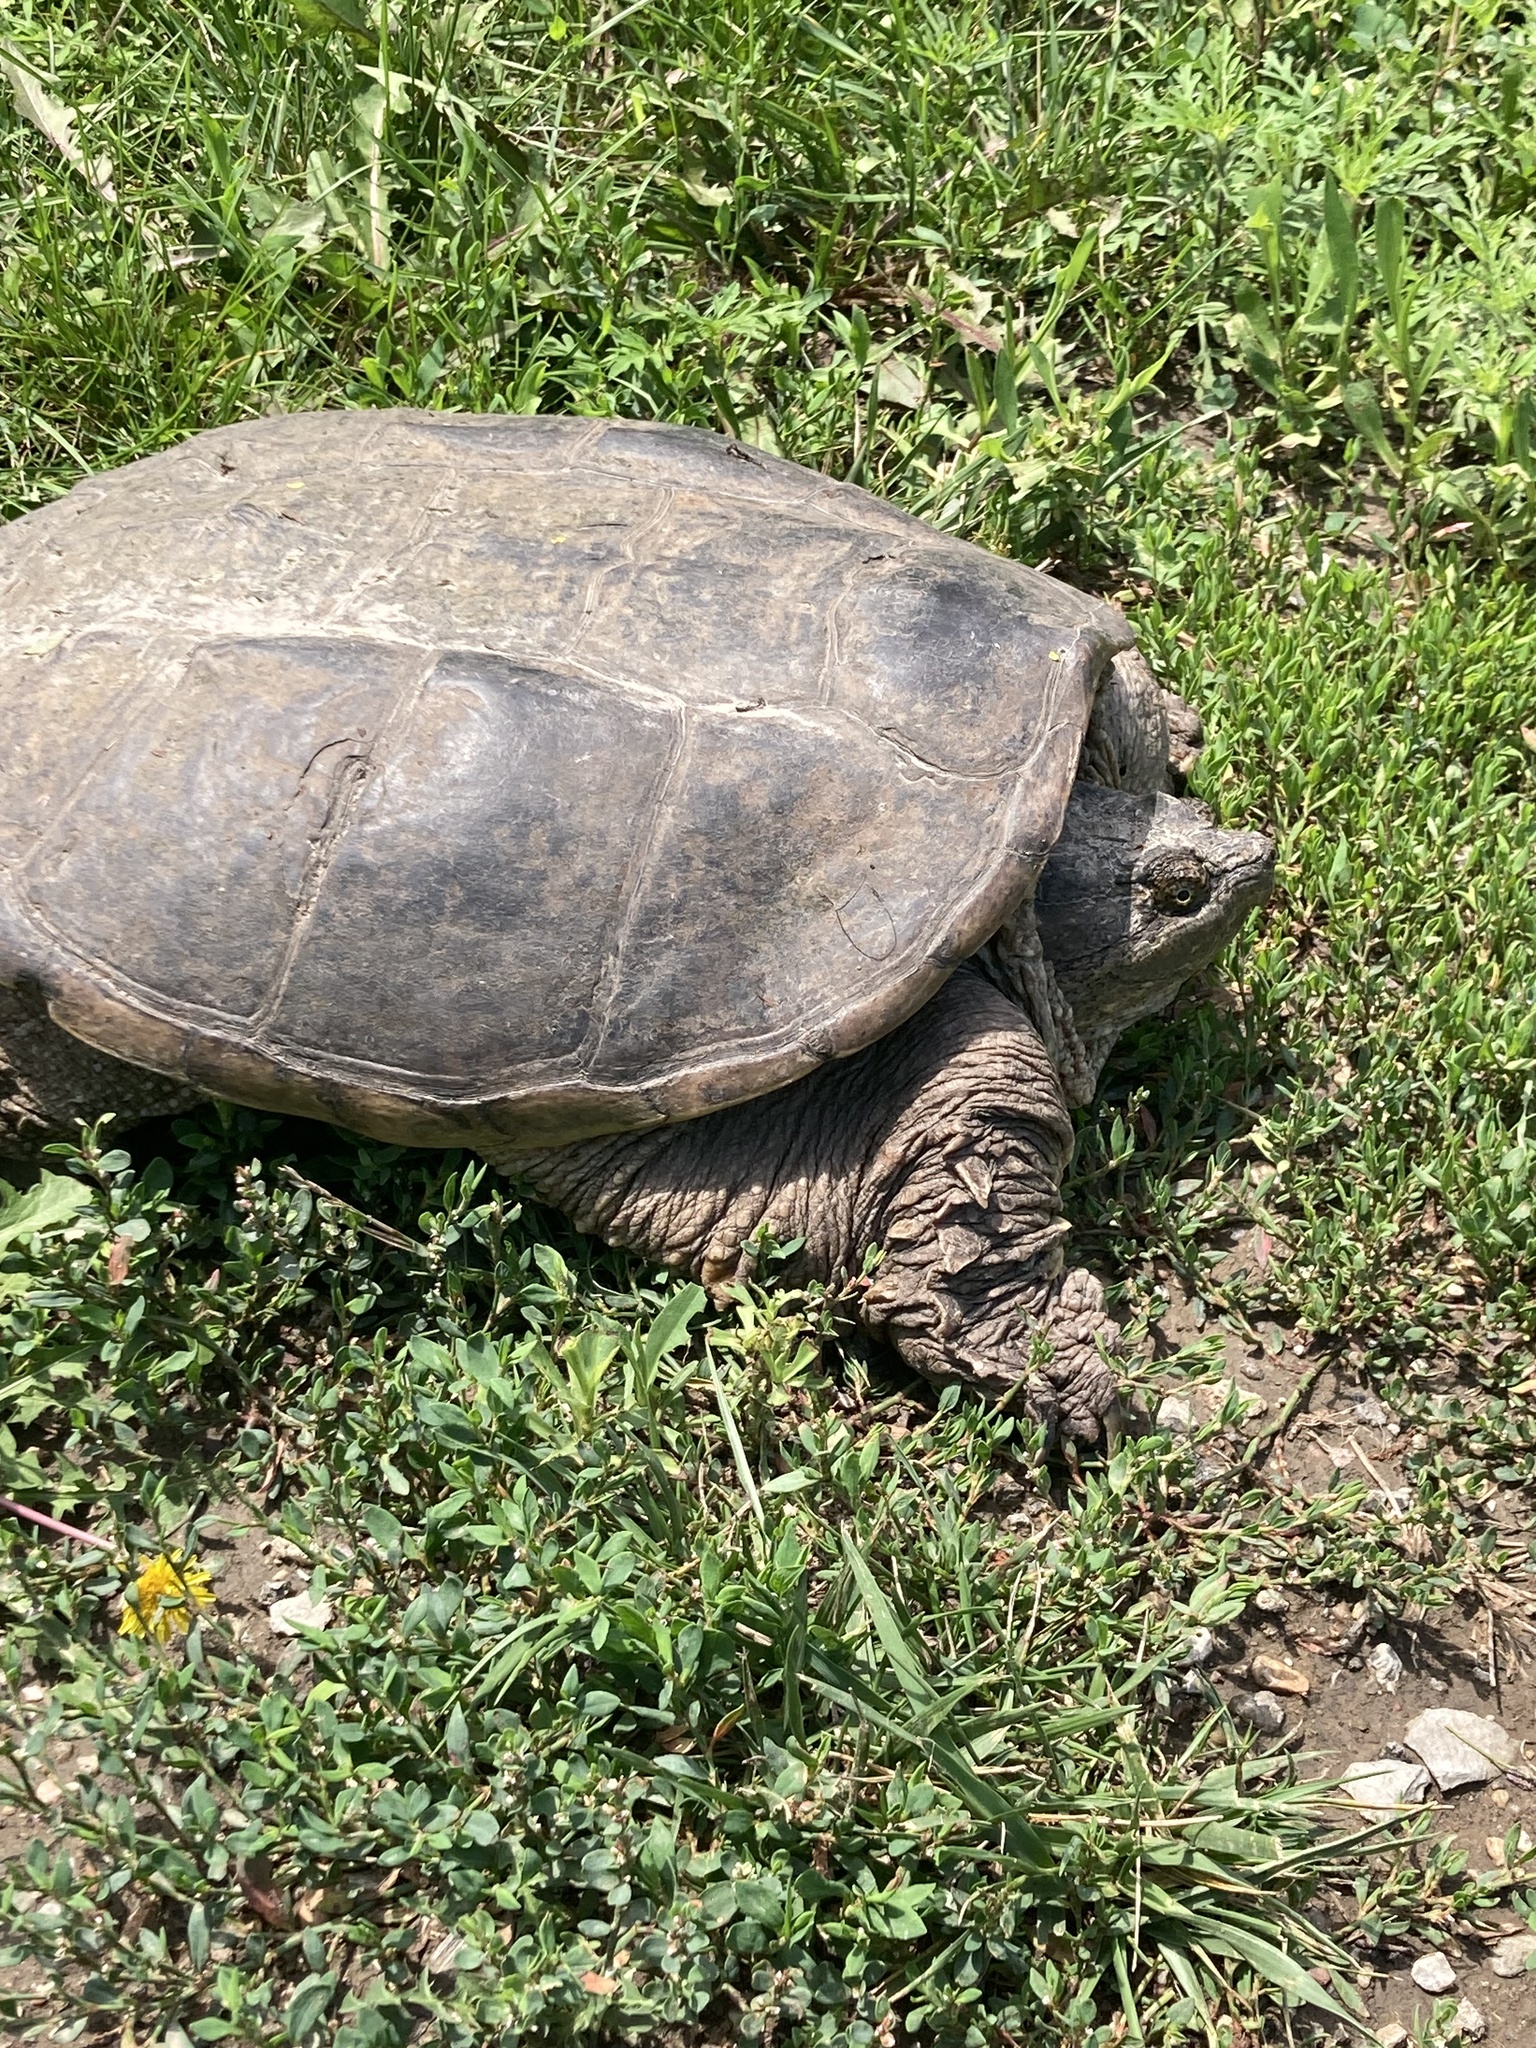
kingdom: Animalia
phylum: Chordata
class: Testudines
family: Chelydridae
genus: Chelydra
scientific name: Chelydra serpentina
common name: Common snapping turtle
